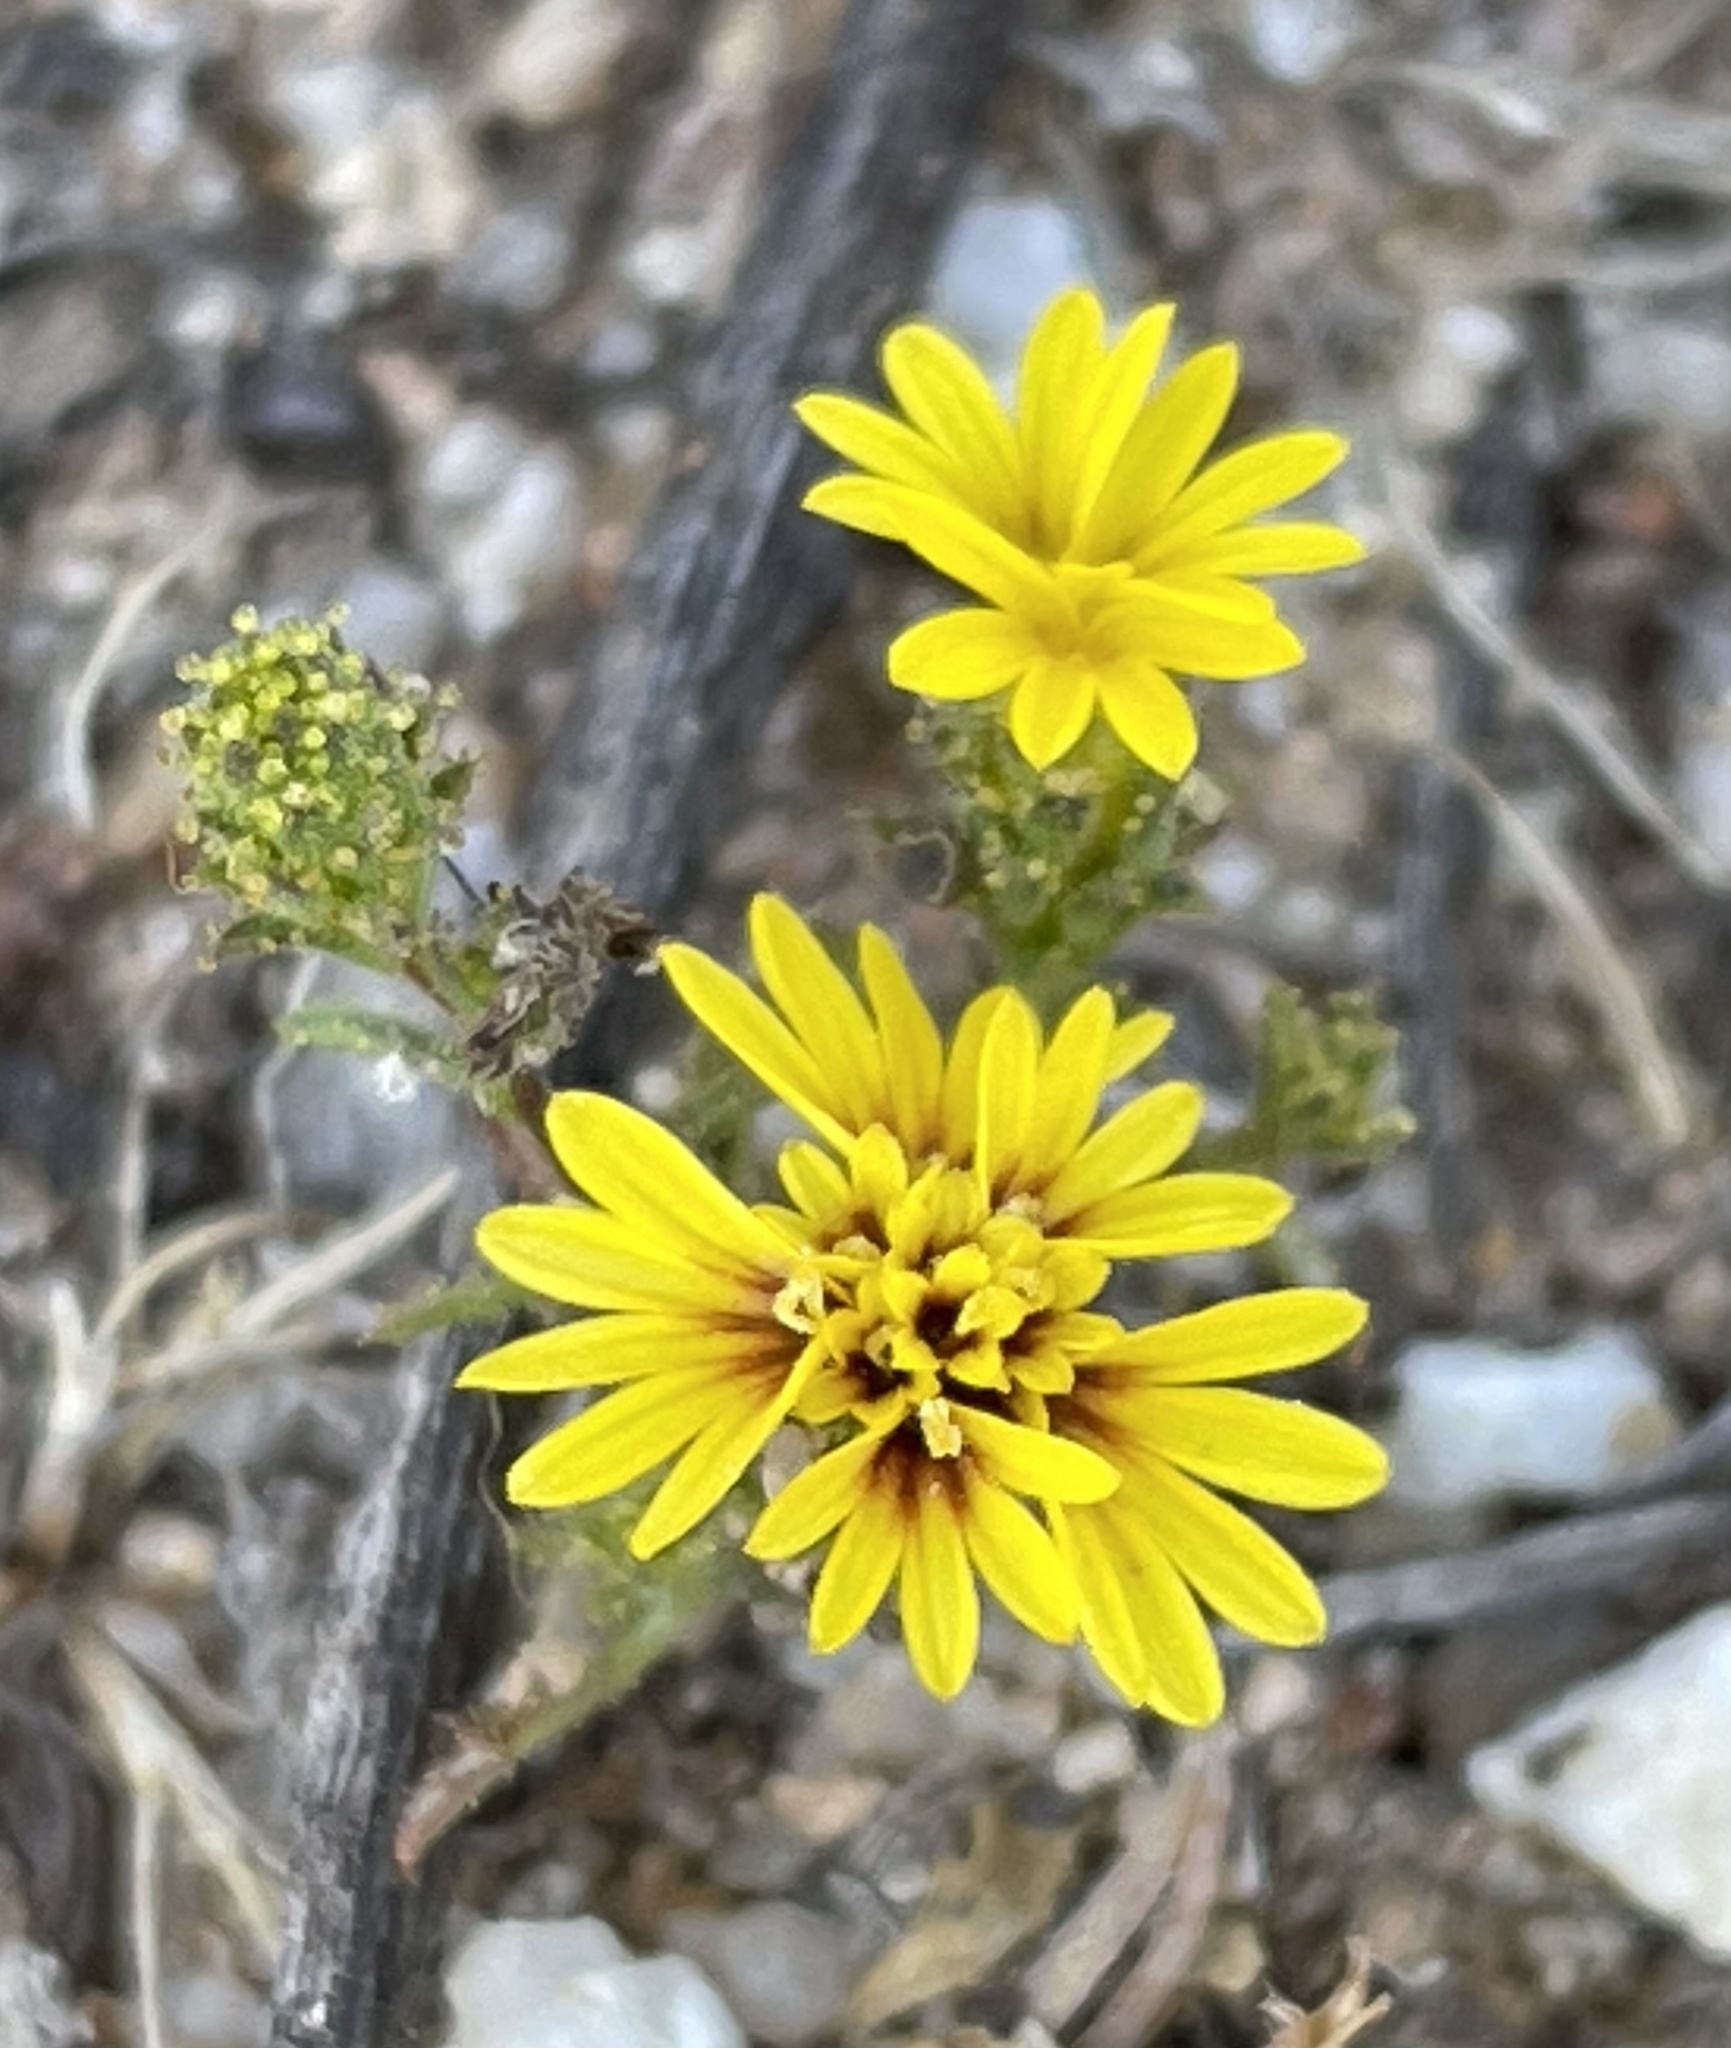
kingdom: Plantae
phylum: Tracheophyta
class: Magnoliopsida
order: Asterales
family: Asteraceae
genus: Lessingia
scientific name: Lessingia pectinata
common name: Valley lessingia
